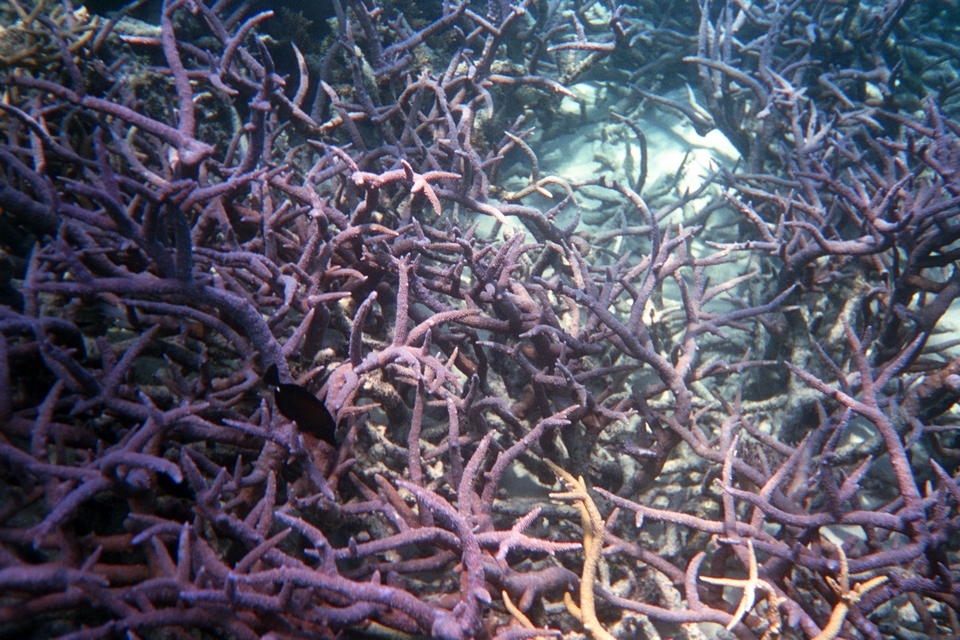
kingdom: Animalia
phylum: Cnidaria
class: Anthozoa
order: Scleractinia
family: Acroporidae
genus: Acropora
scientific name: Acropora muricata
